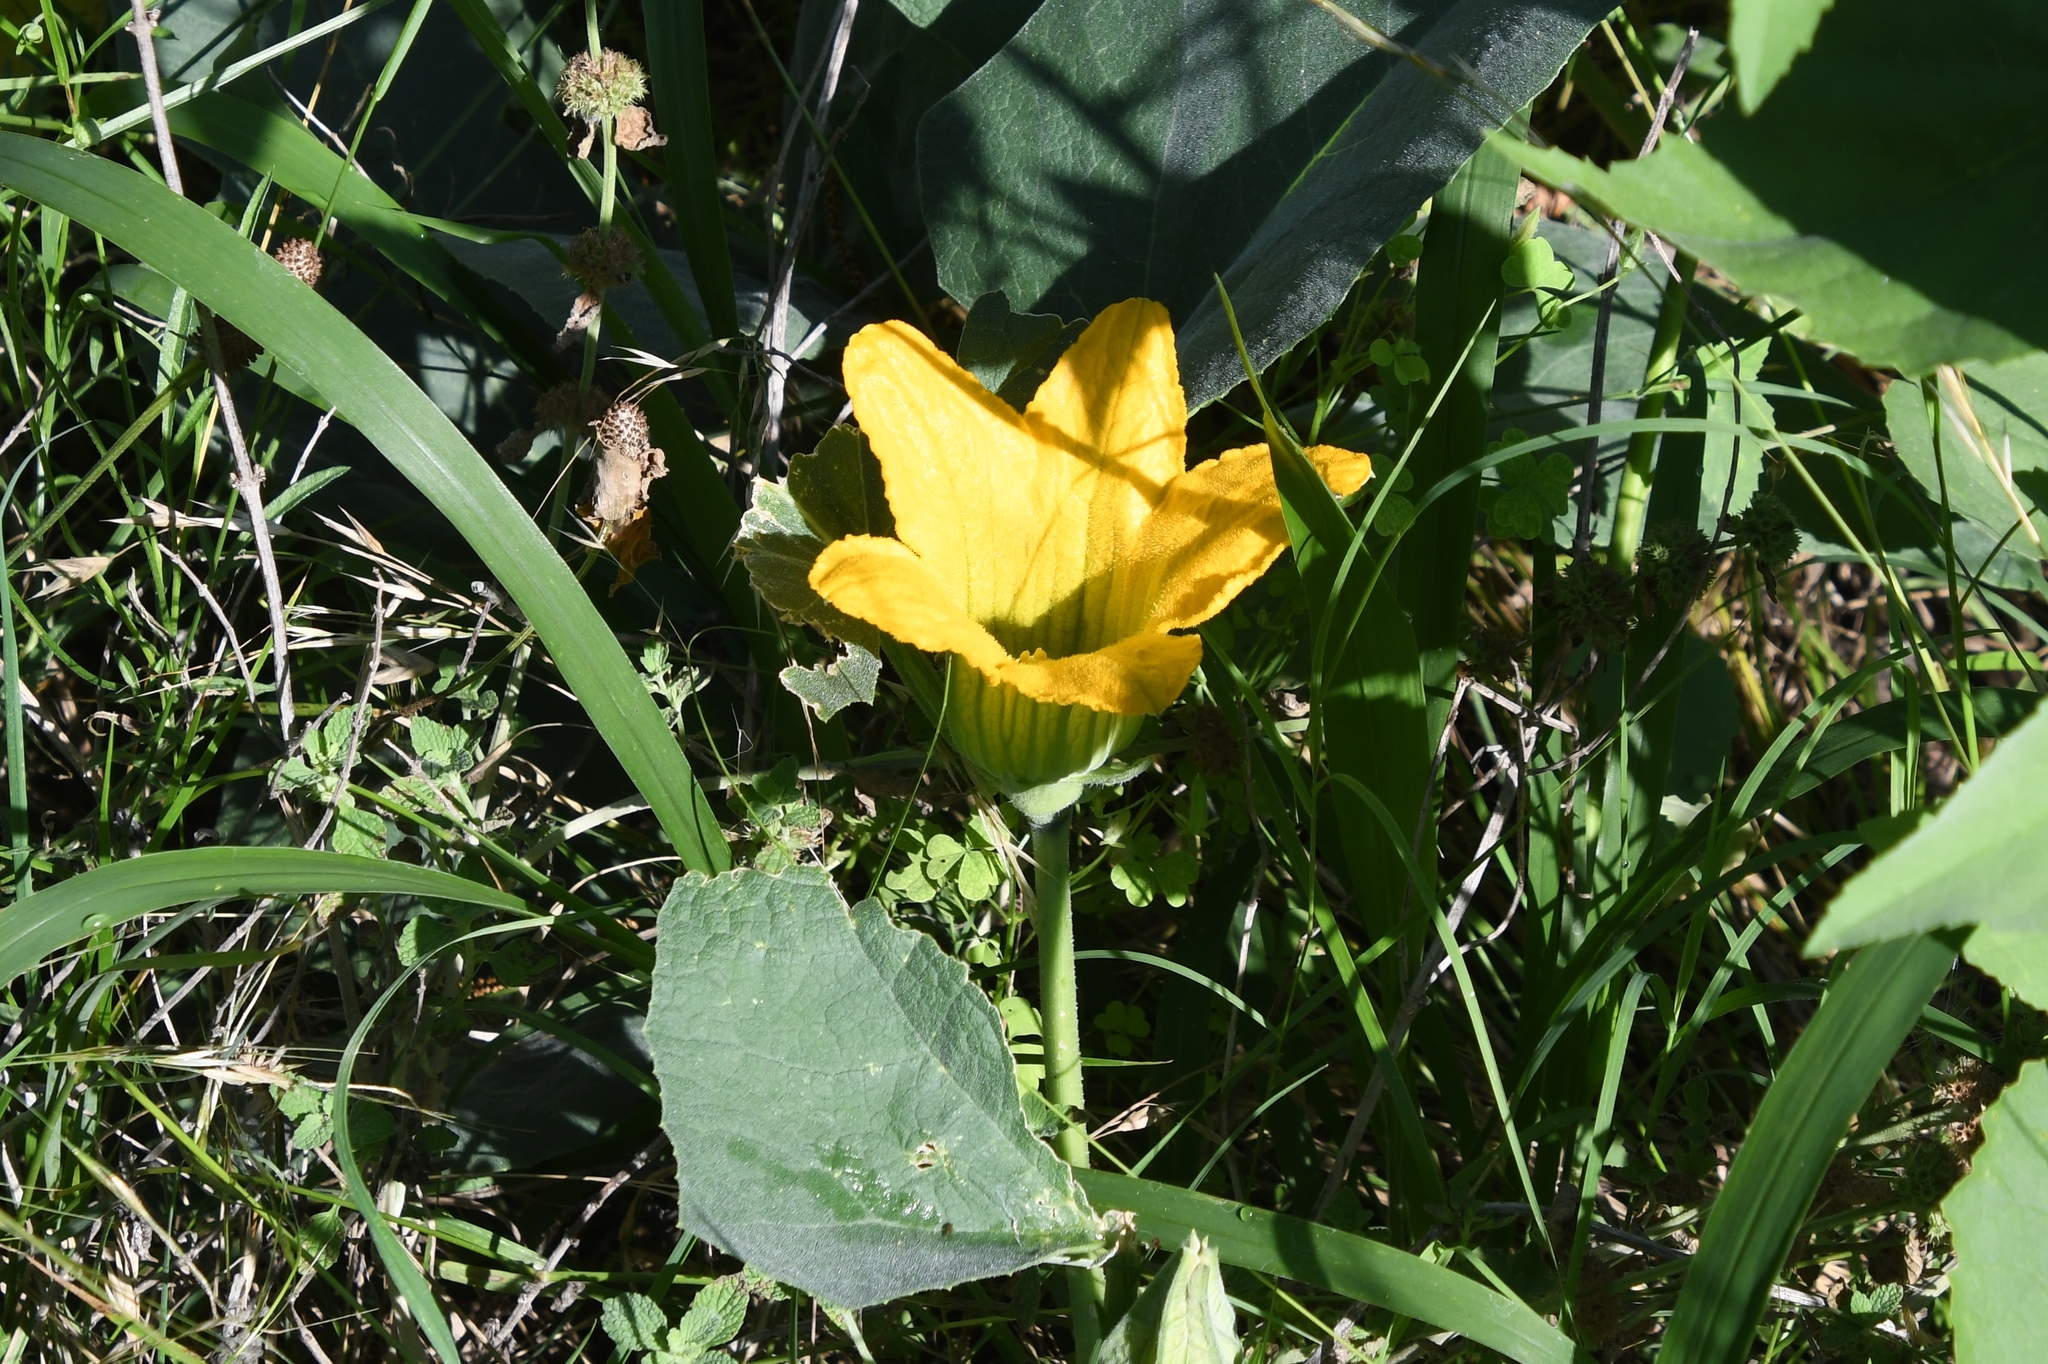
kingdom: Plantae
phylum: Tracheophyta
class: Magnoliopsida
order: Cucurbitales
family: Cucurbitaceae
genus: Cucurbita
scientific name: Cucurbita foetidissima
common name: Buffalo gourd
